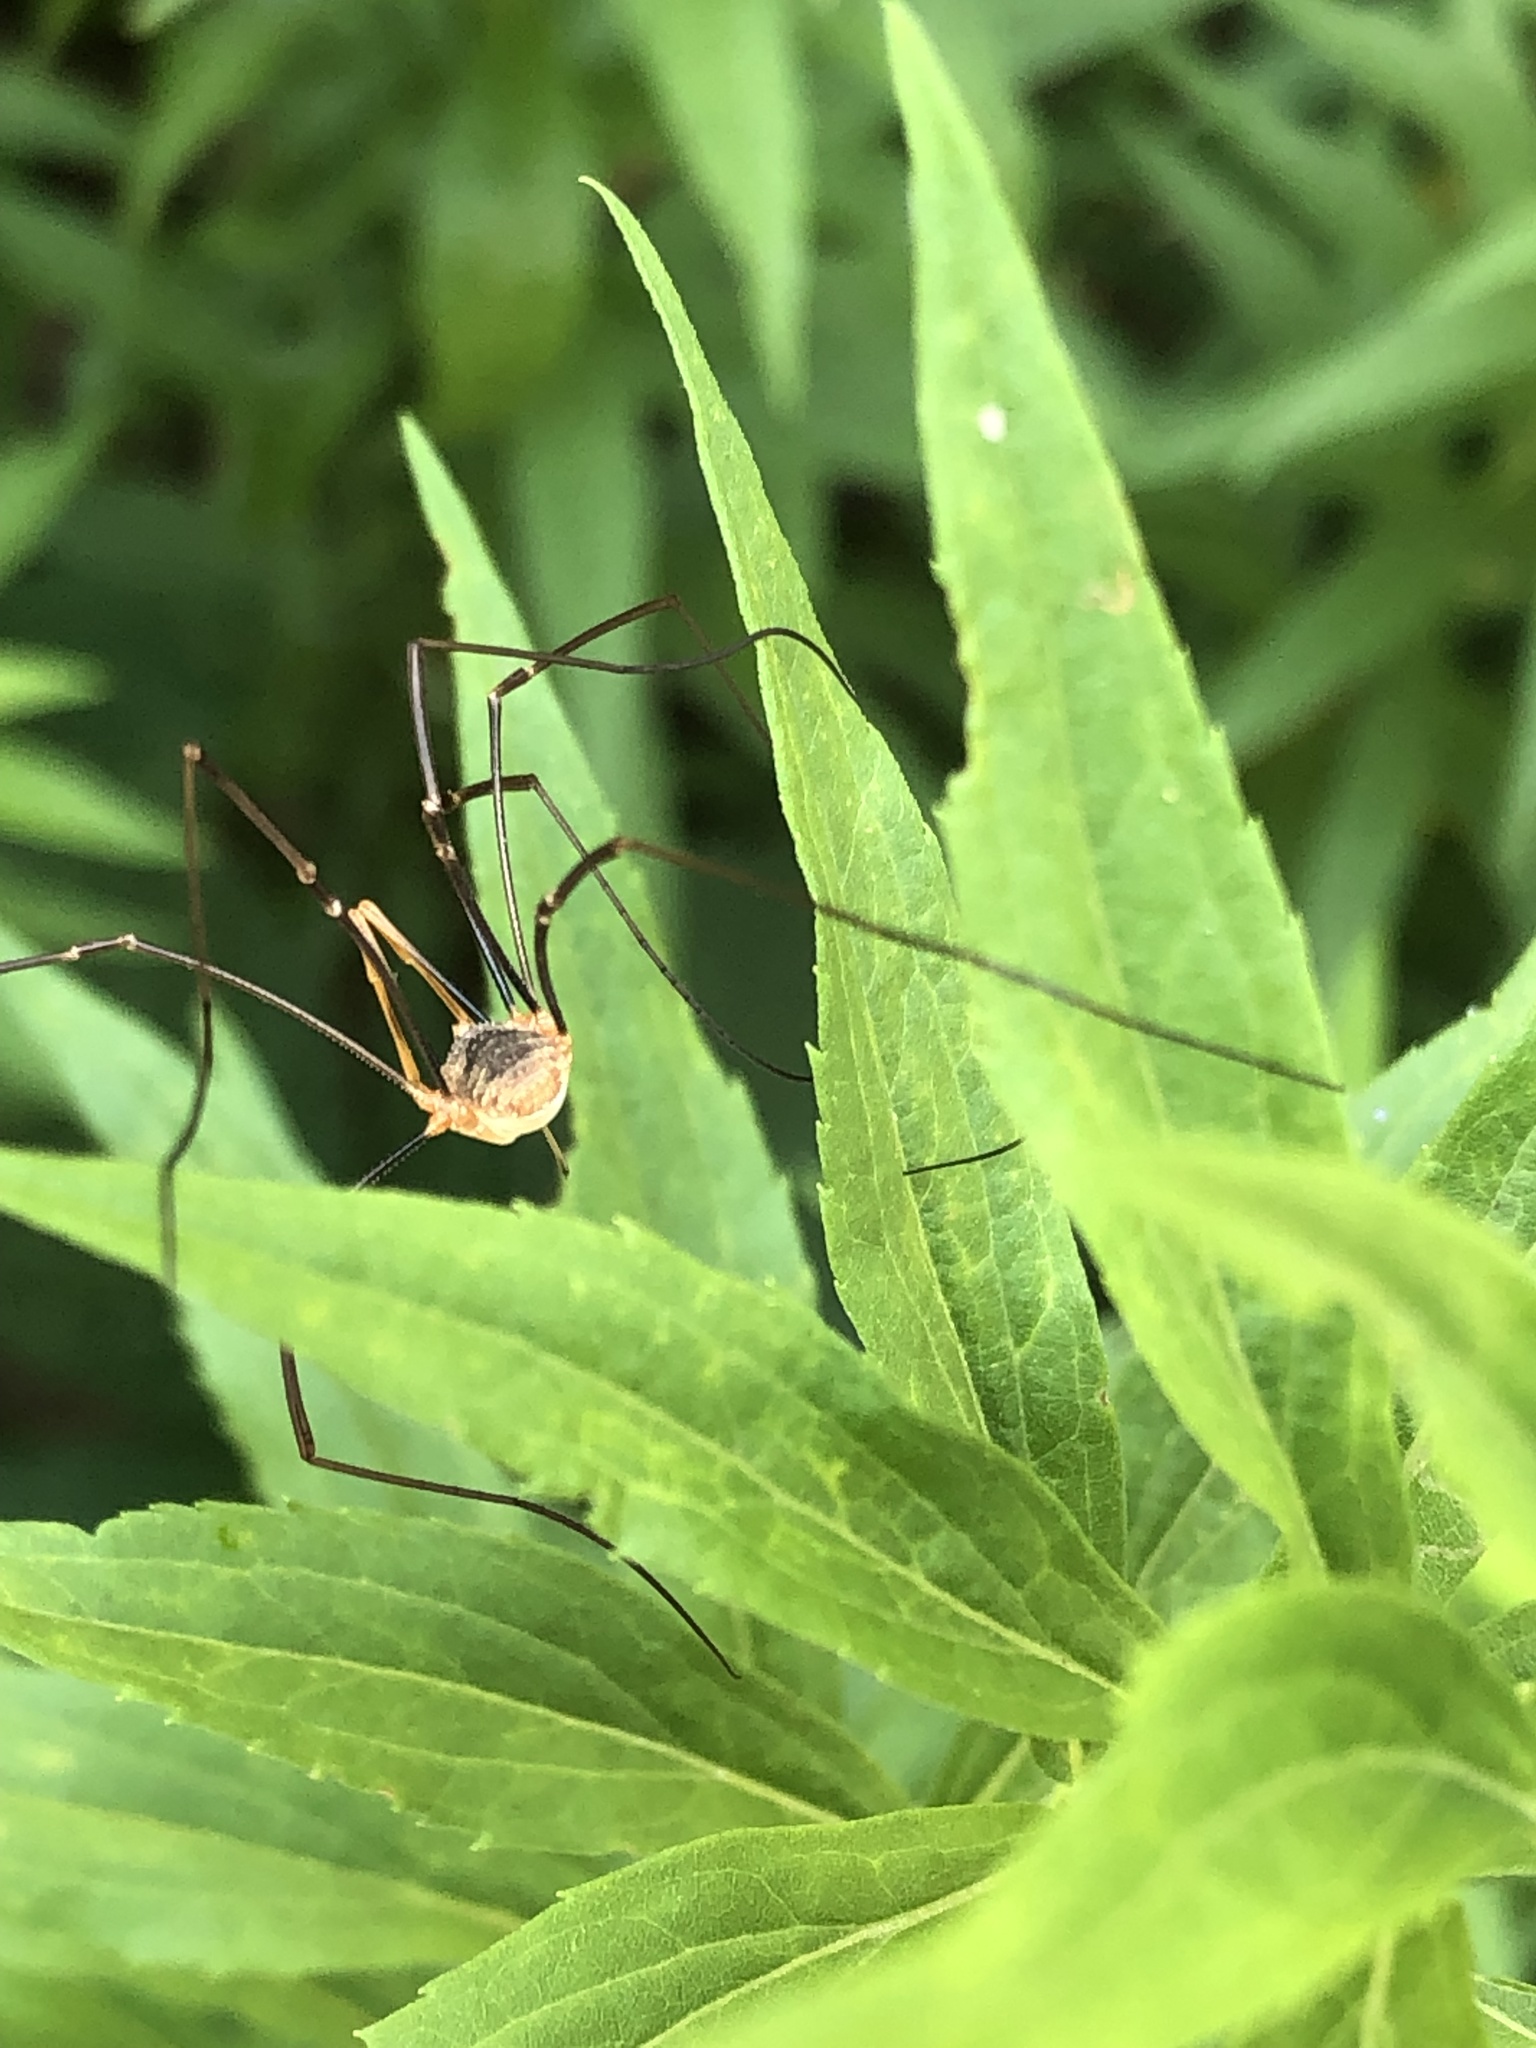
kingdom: Animalia
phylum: Arthropoda
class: Arachnida
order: Opiliones
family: Phalangiidae
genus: Phalangium
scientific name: Phalangium opilio
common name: Daddy longleg
